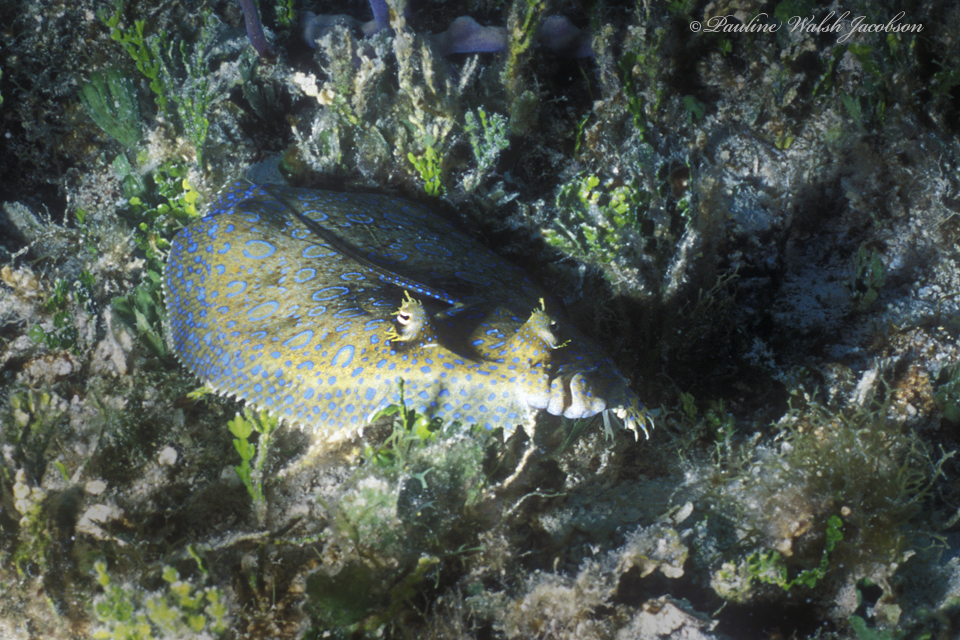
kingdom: Animalia
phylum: Chordata
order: Pleuronectiformes
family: Bothidae
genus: Bothus
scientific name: Bothus lunatus
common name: Peacock flounder
